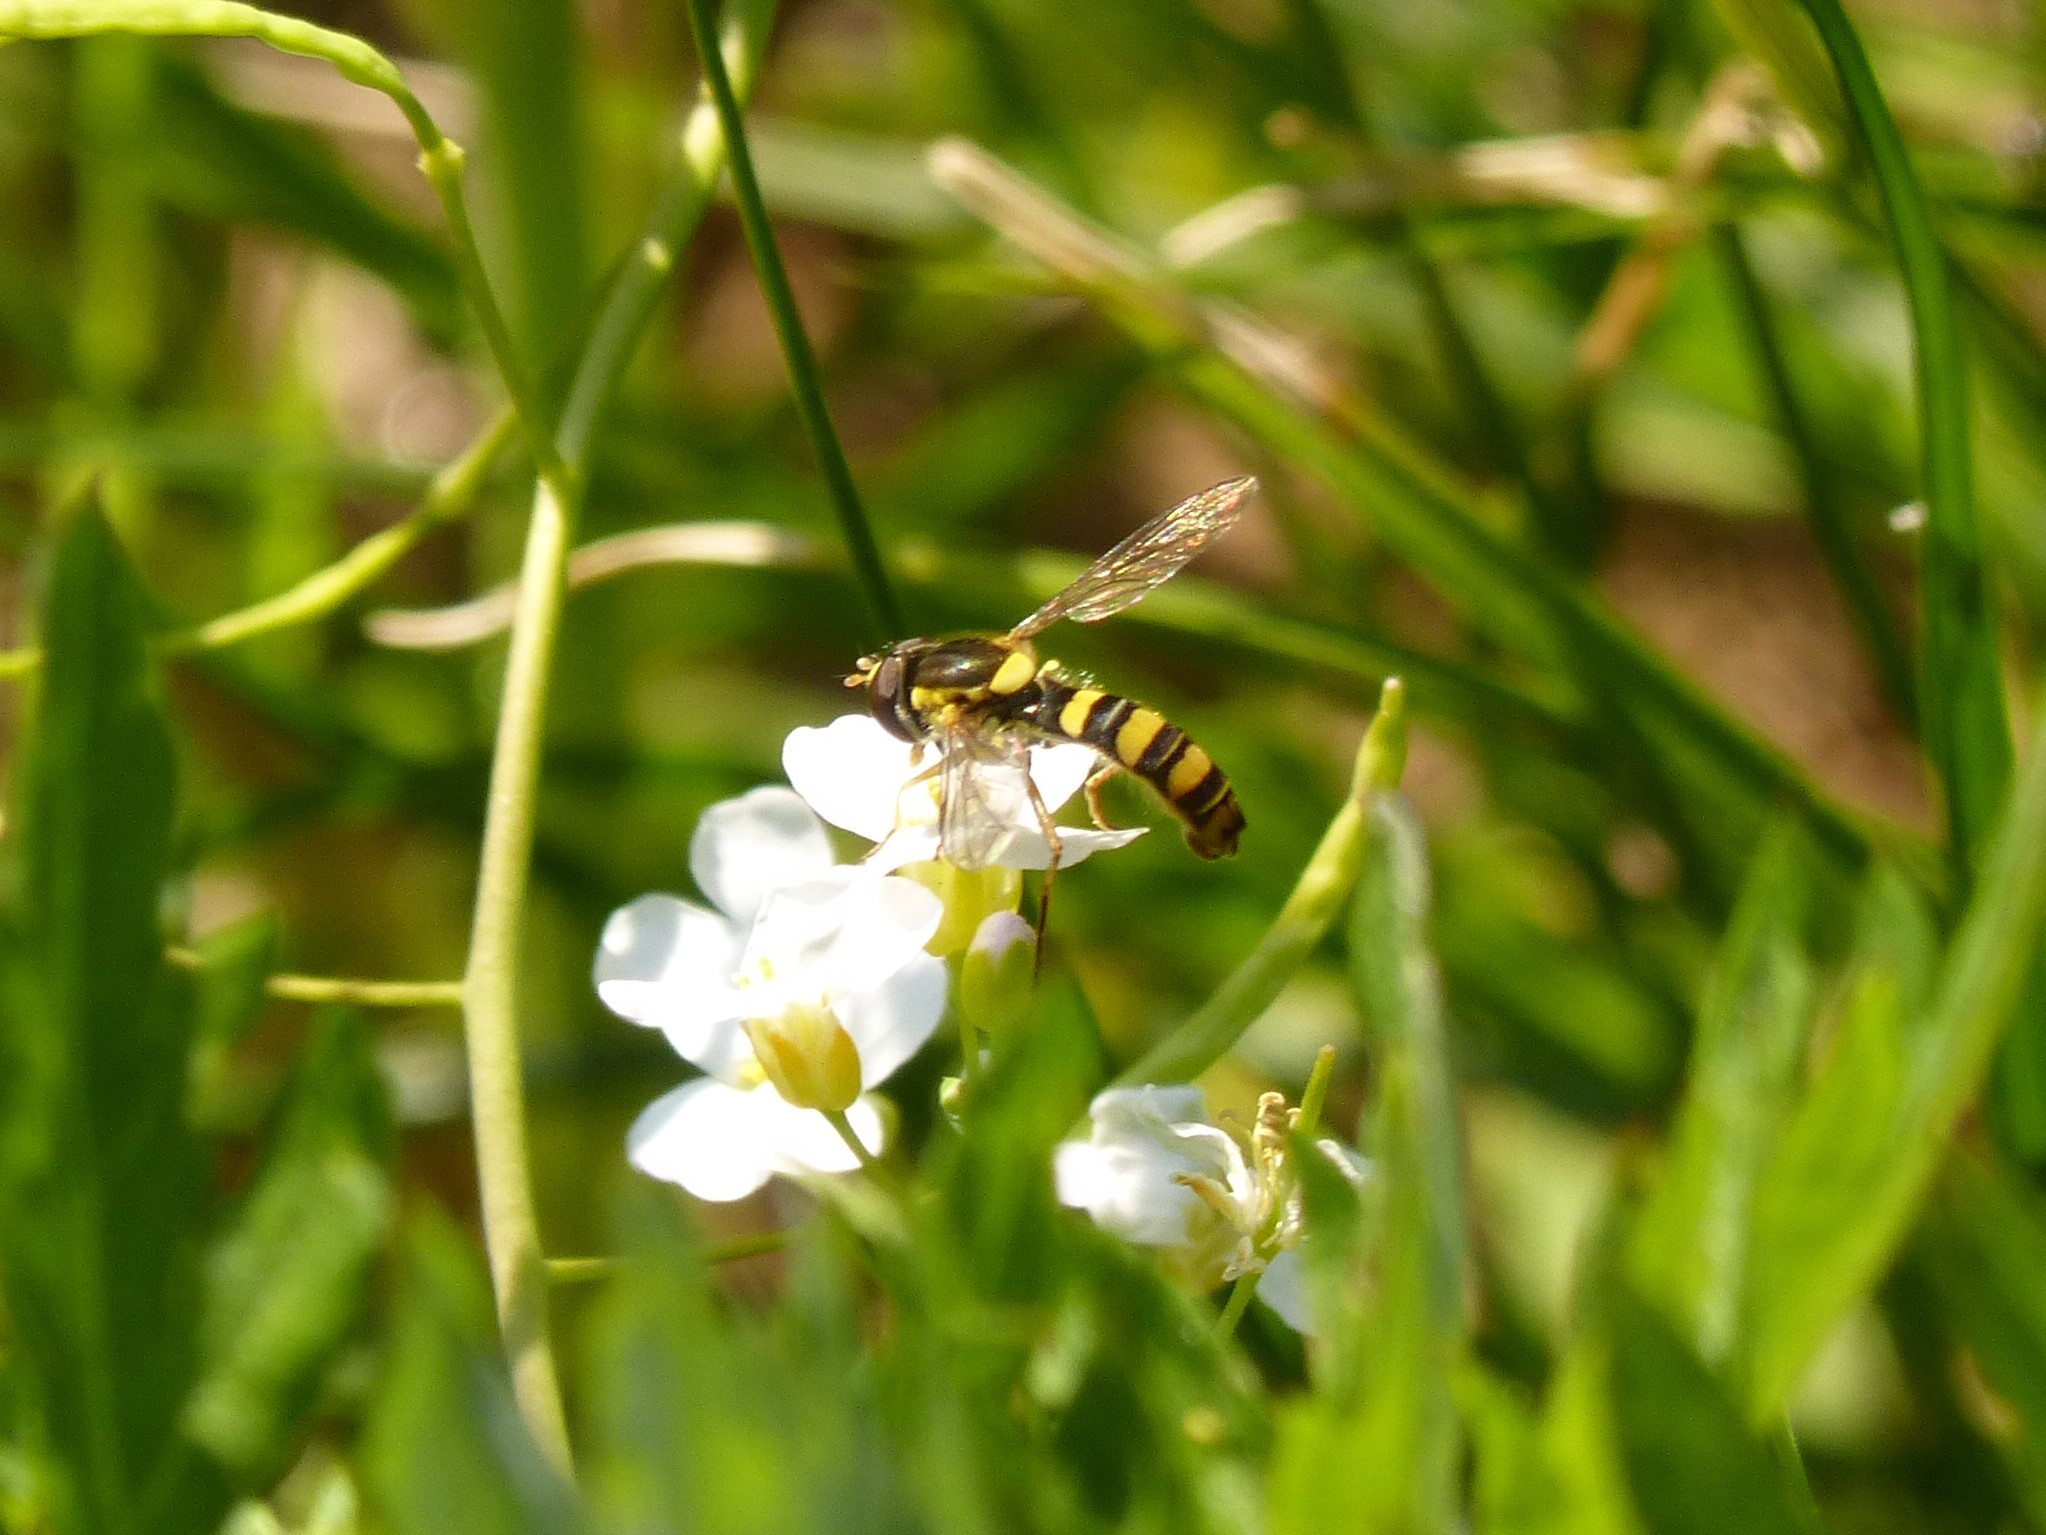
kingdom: Animalia
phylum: Arthropoda
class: Insecta
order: Diptera
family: Syrphidae
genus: Sphaerophoria
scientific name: Sphaerophoria scripta
